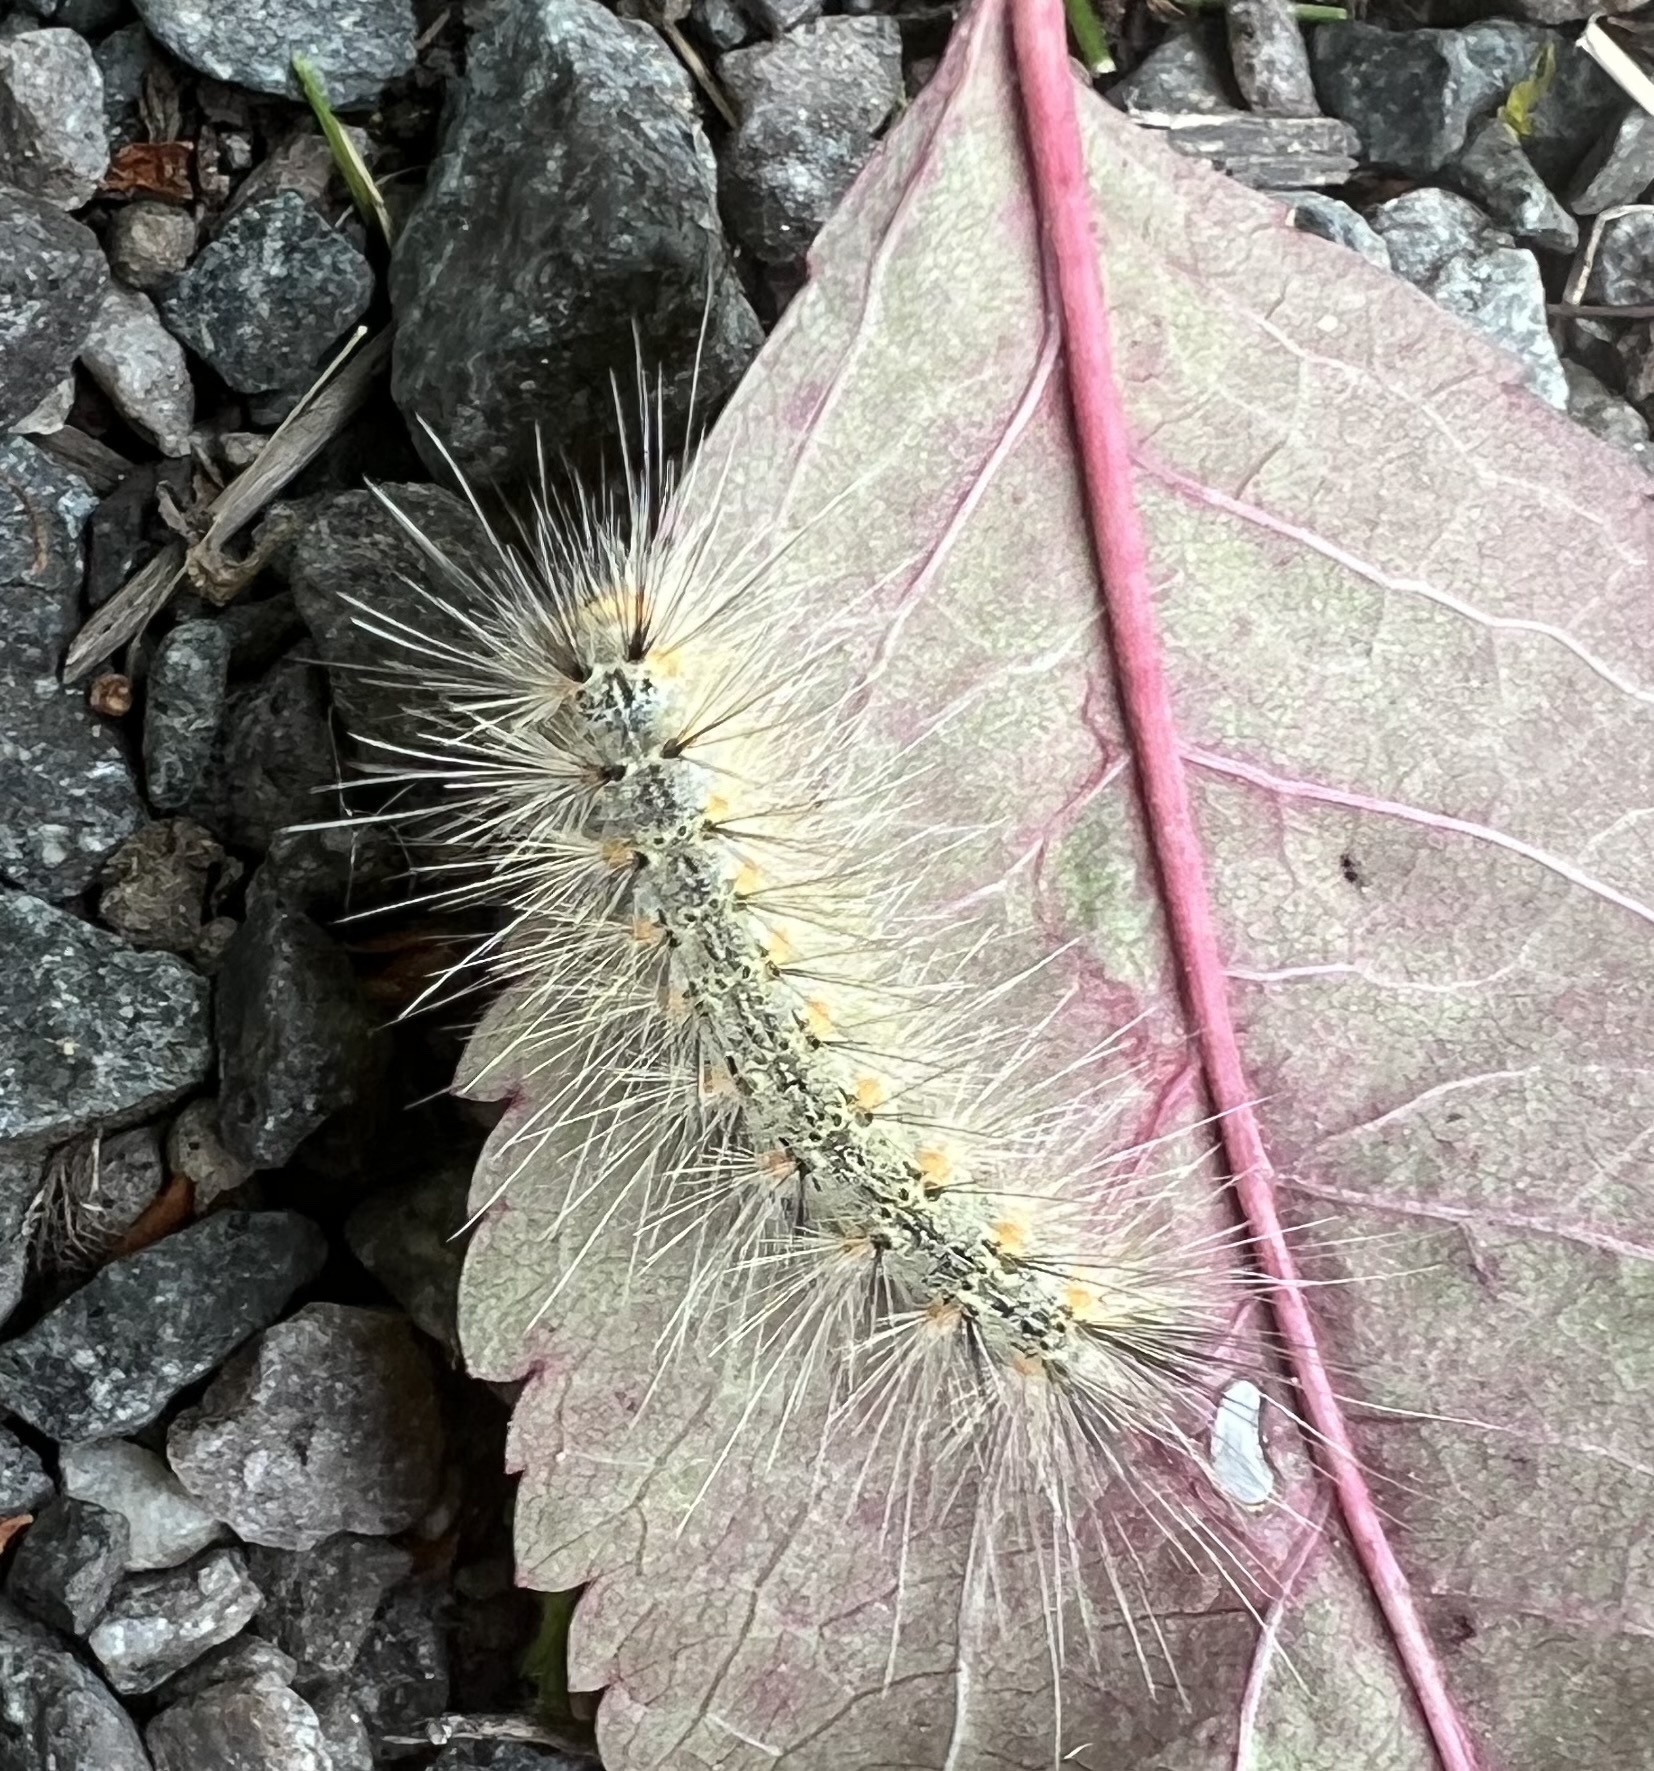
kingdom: Animalia
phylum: Arthropoda
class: Insecta
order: Lepidoptera
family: Erebidae
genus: Hyphantria
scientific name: Hyphantria cunea
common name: American white moth
